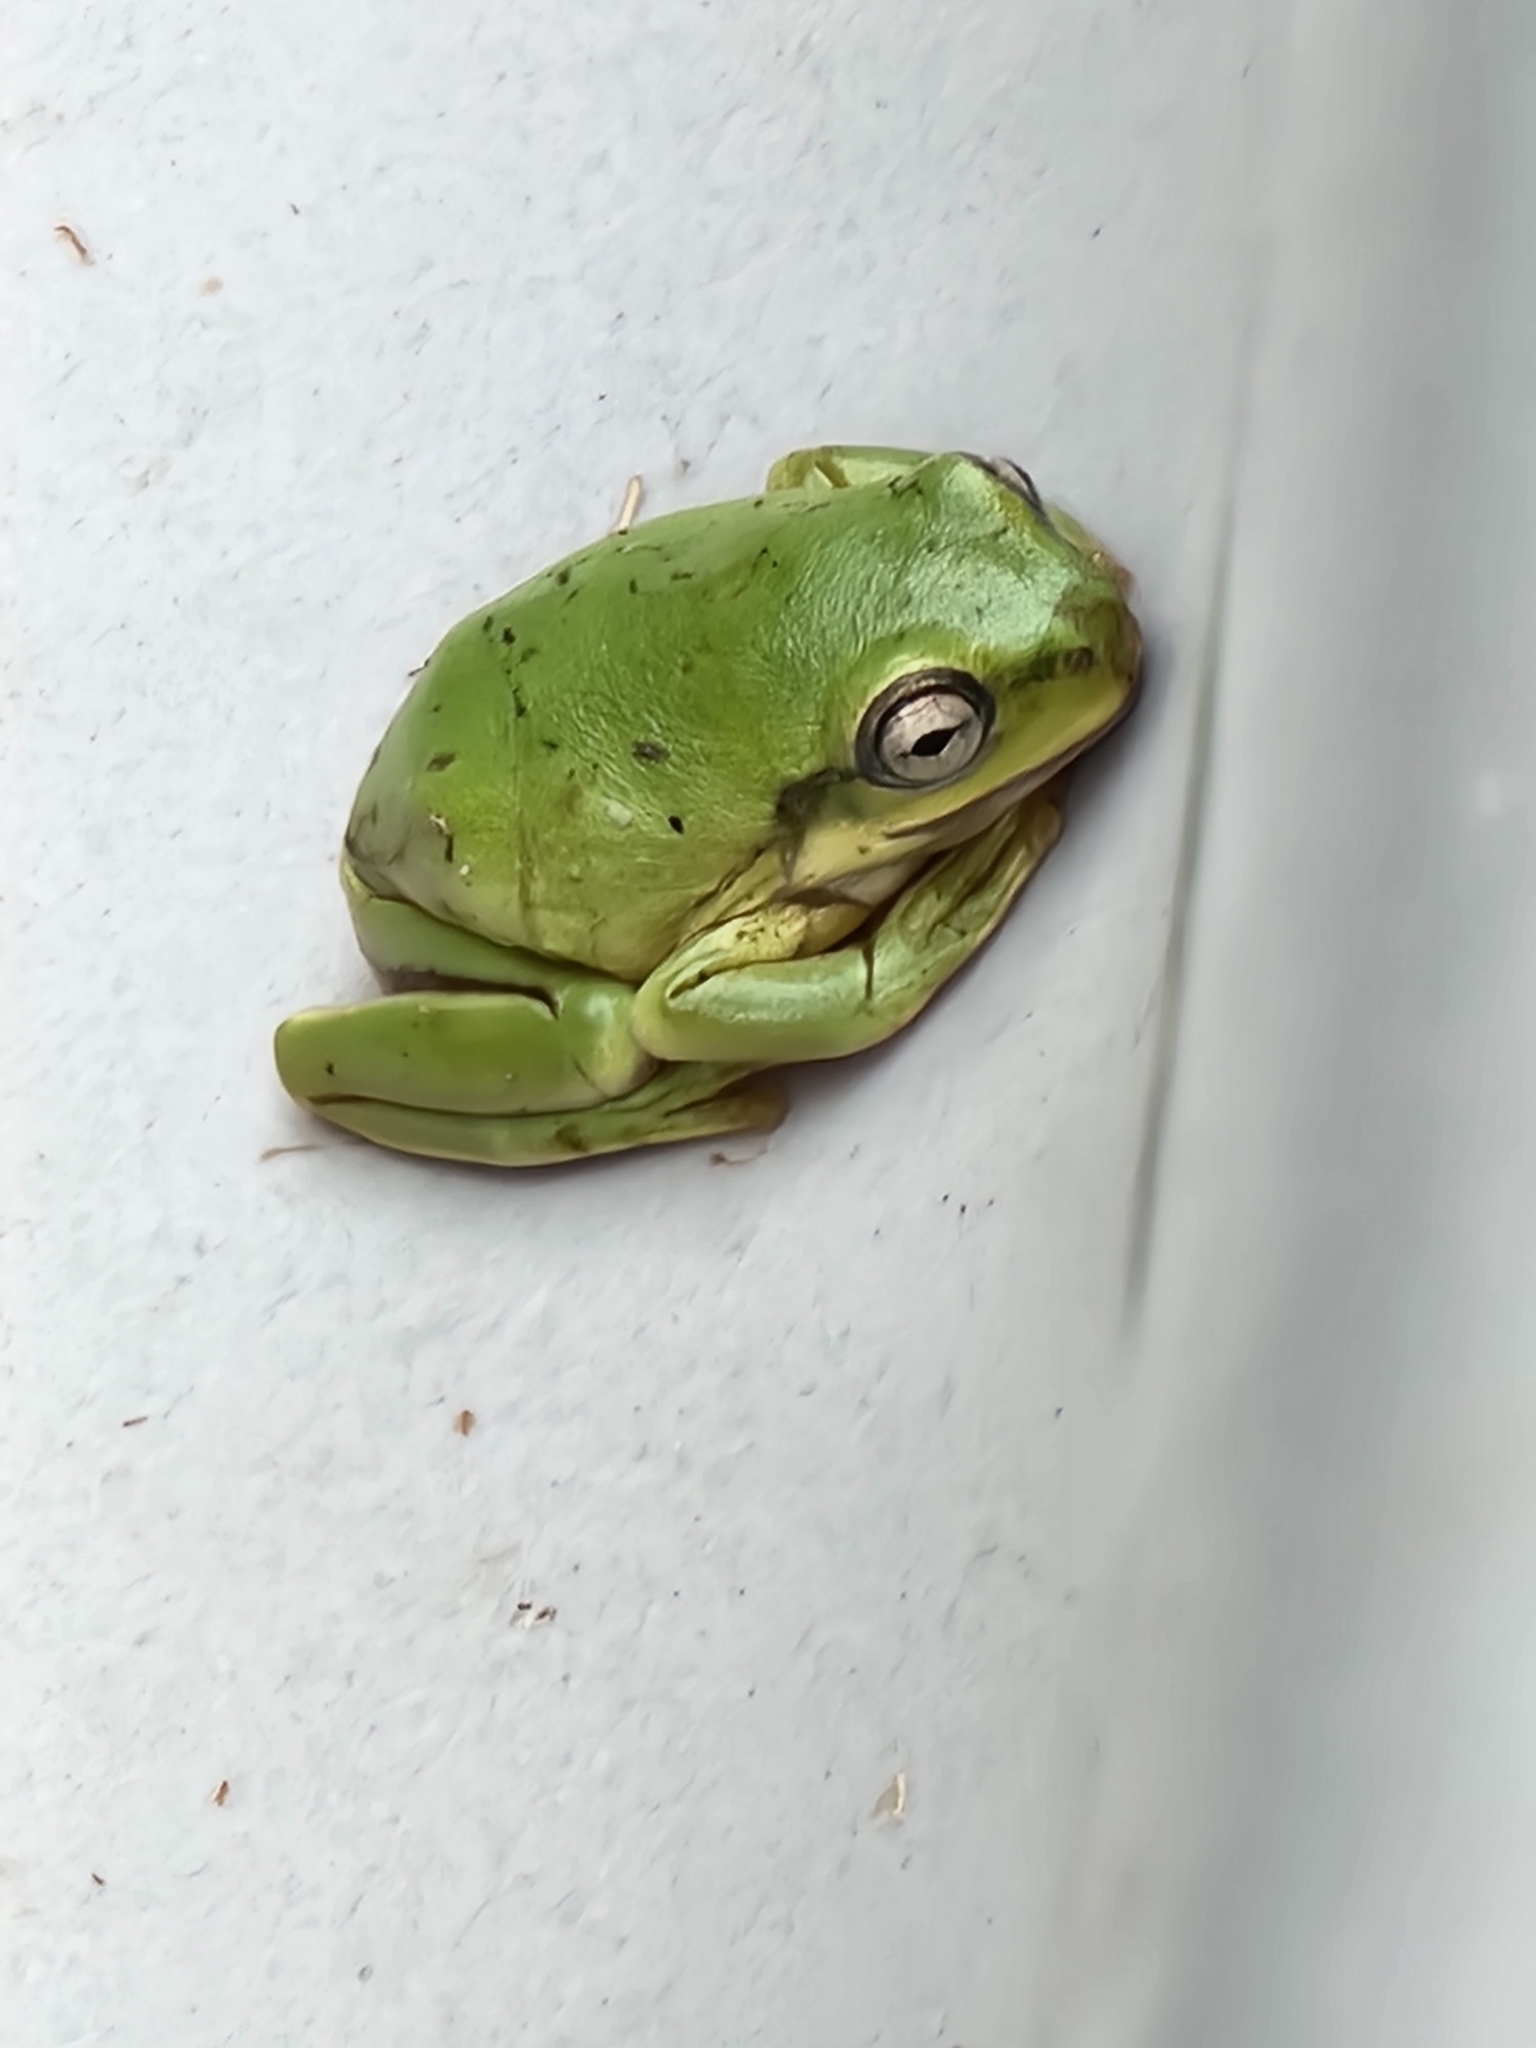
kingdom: Animalia
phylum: Chordata
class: Amphibia
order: Anura
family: Pelodryadidae
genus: Ranoidea
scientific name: Ranoidea caerulea
